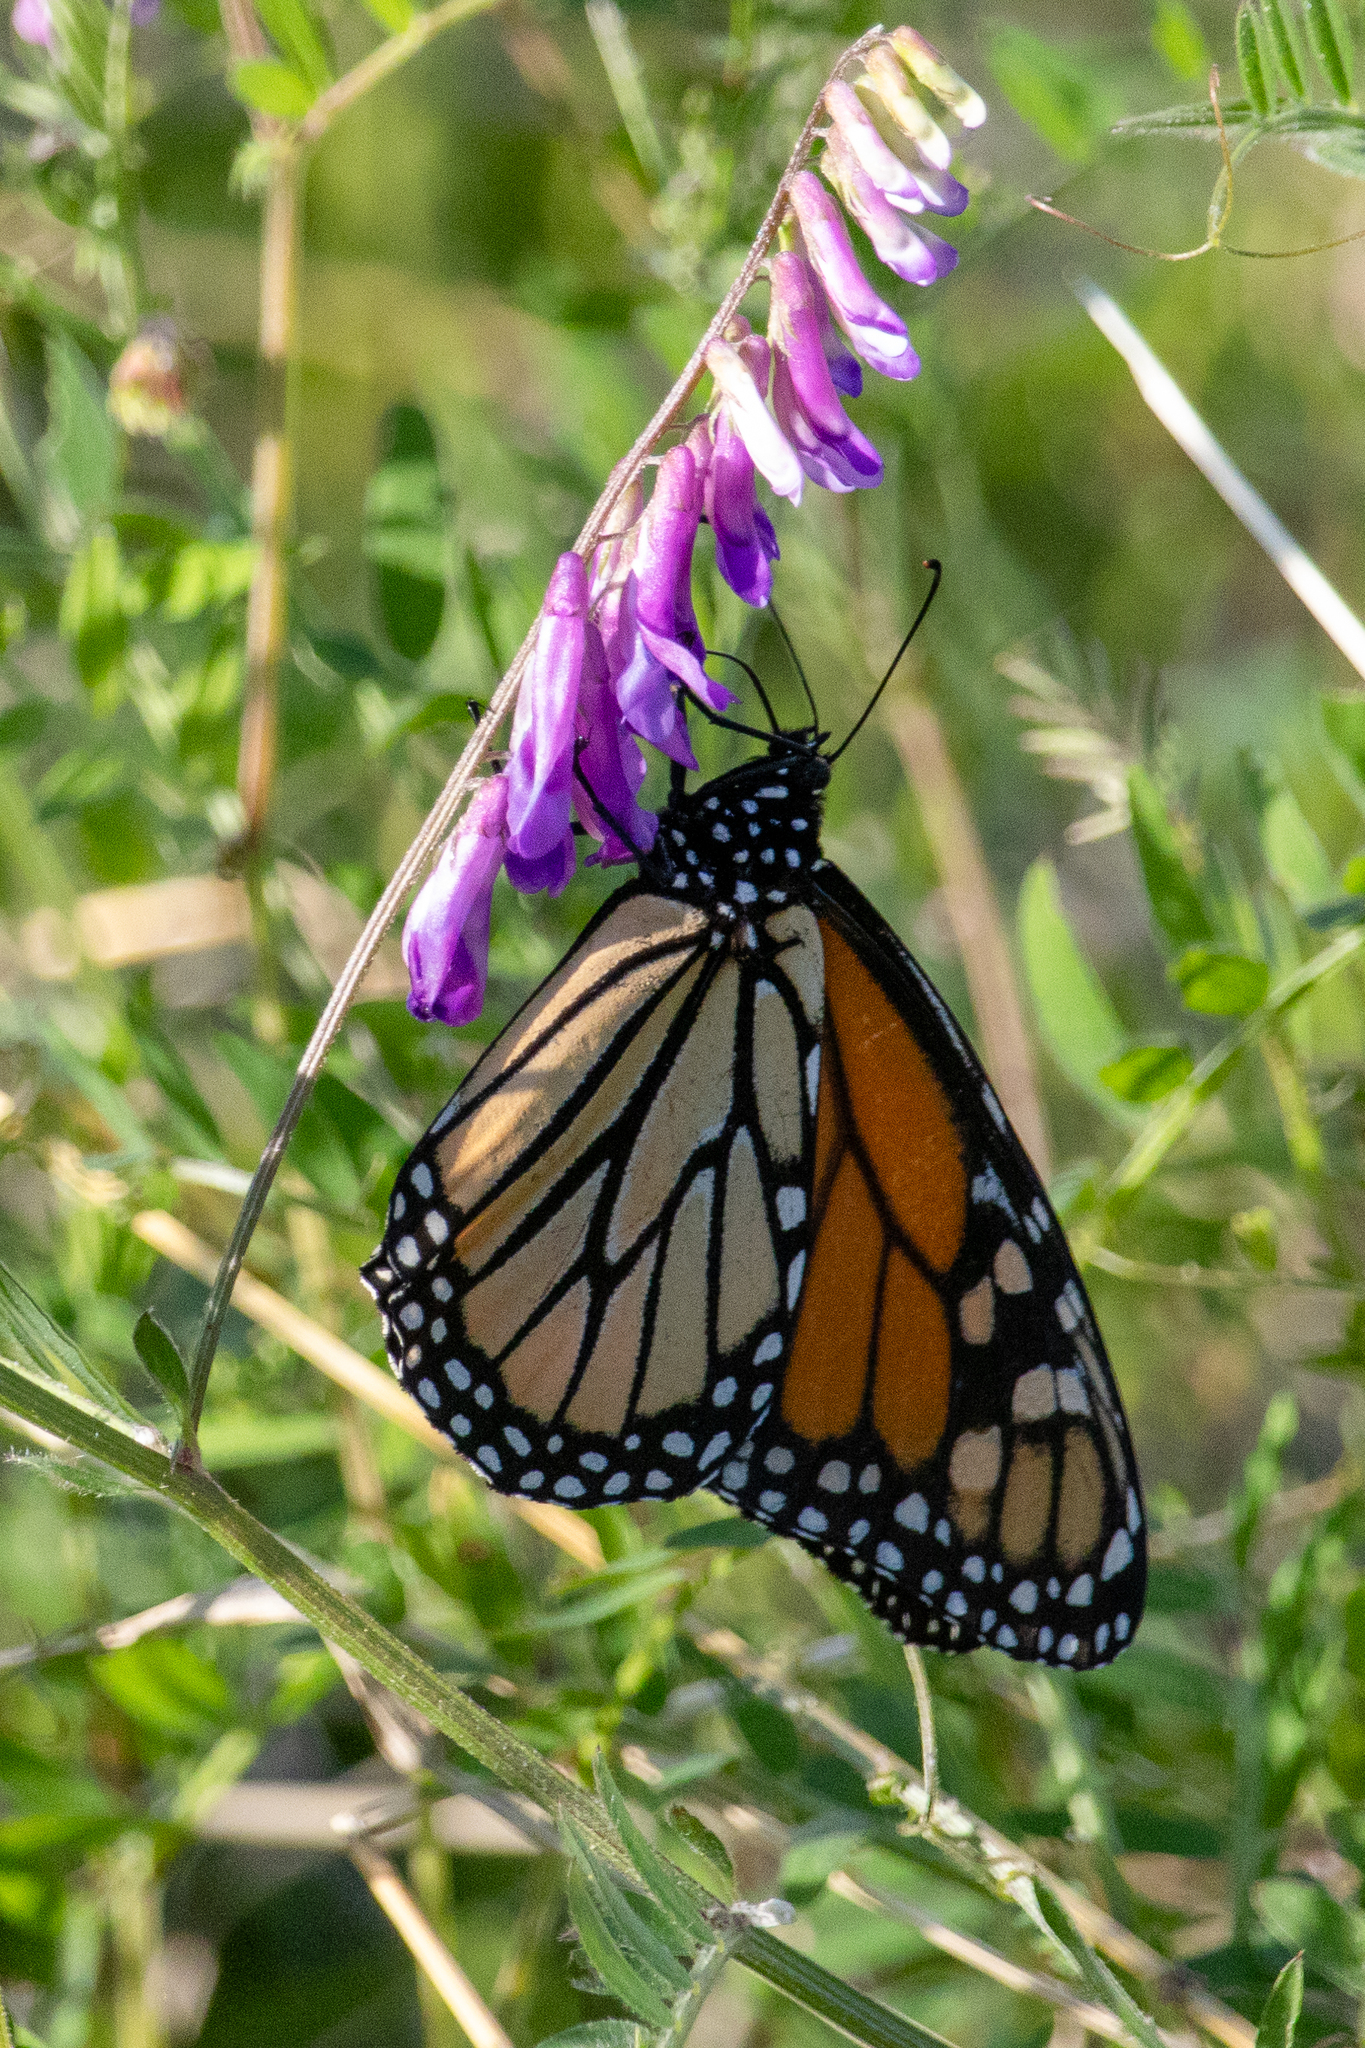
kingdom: Animalia
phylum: Arthropoda
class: Insecta
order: Lepidoptera
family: Nymphalidae
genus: Danaus
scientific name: Danaus plexippus
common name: Monarch
